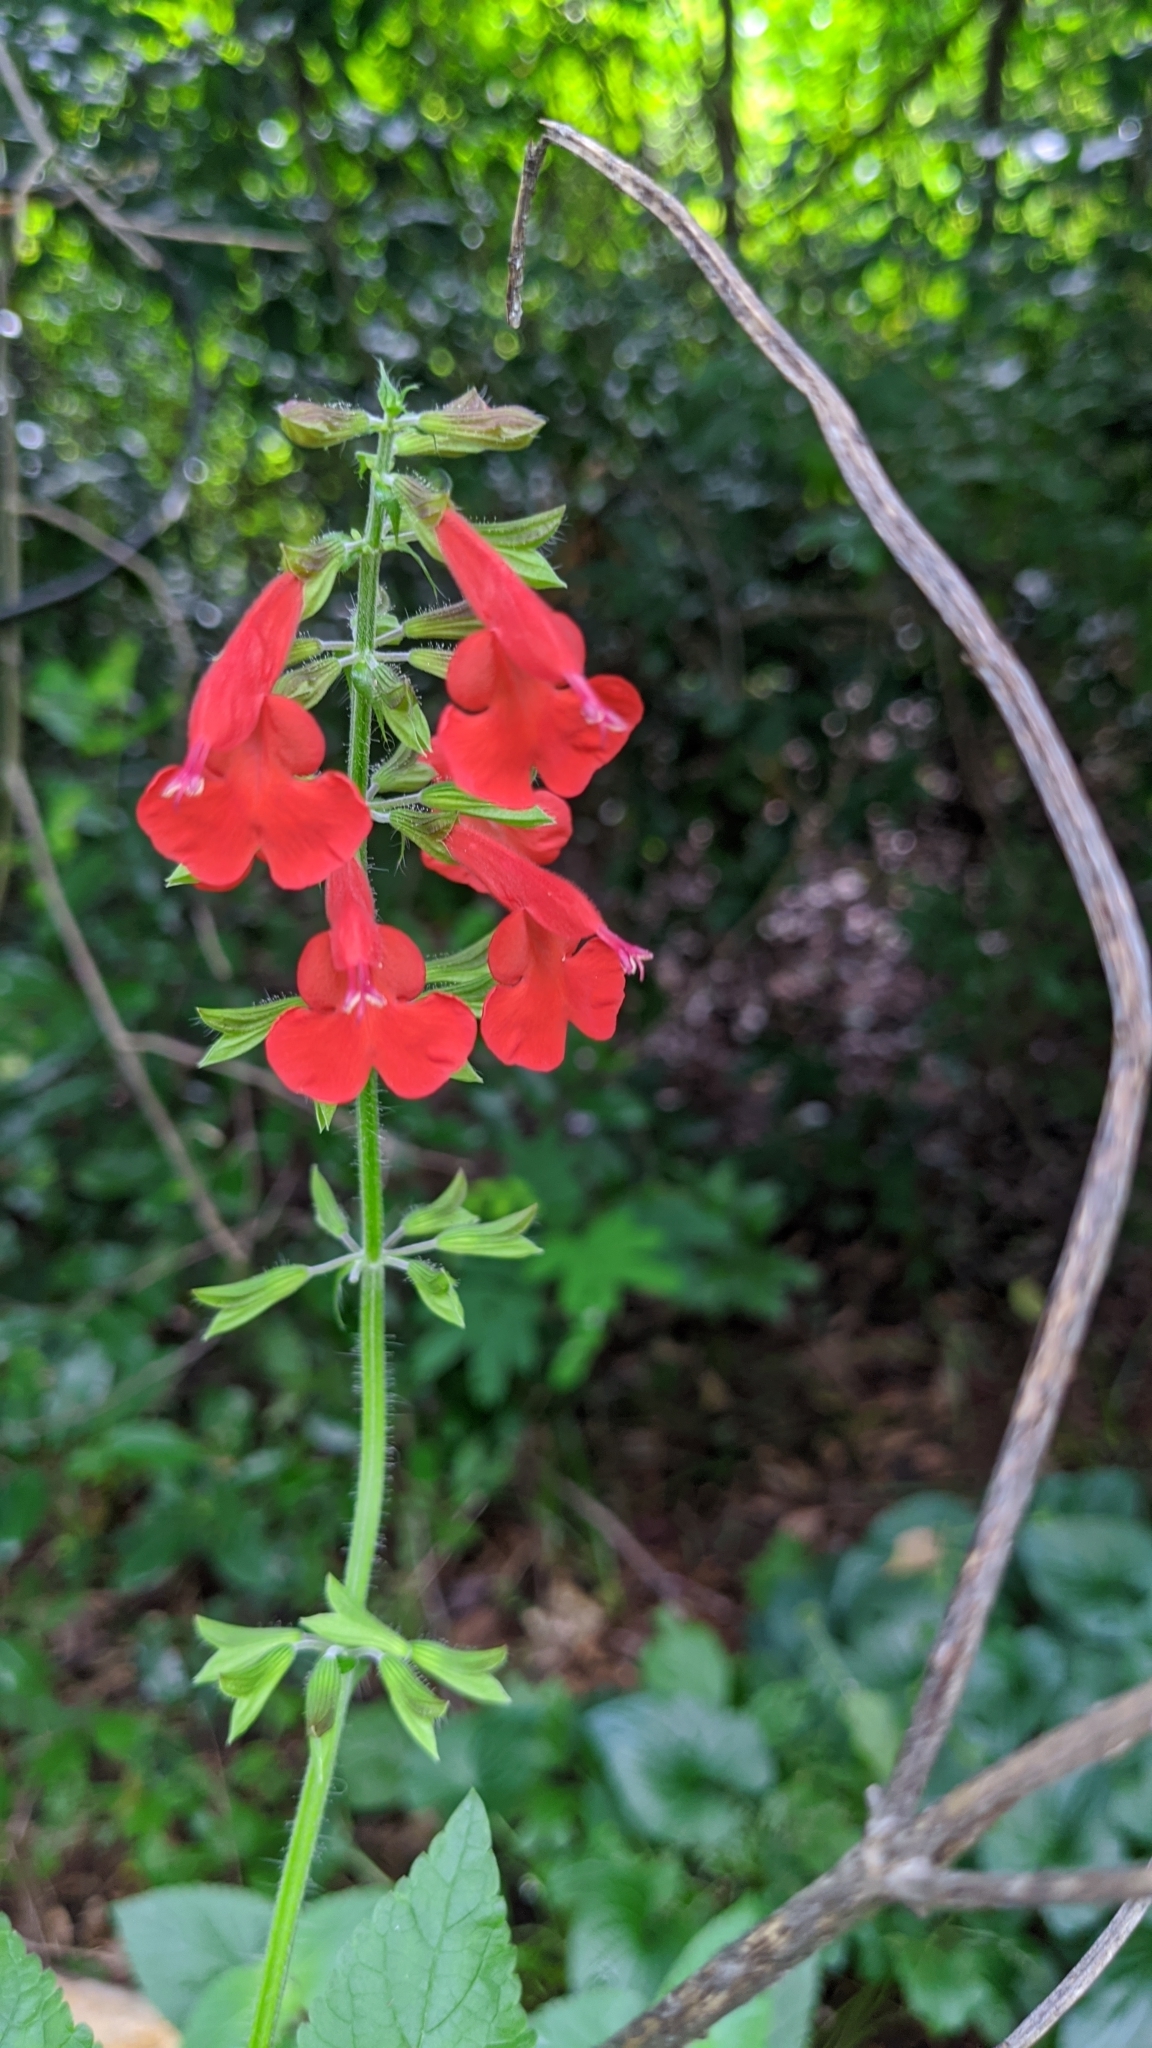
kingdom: Plantae
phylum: Tracheophyta
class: Magnoliopsida
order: Lamiales
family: Lamiaceae
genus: Salvia
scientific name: Salvia coccinea
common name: Blood sage
